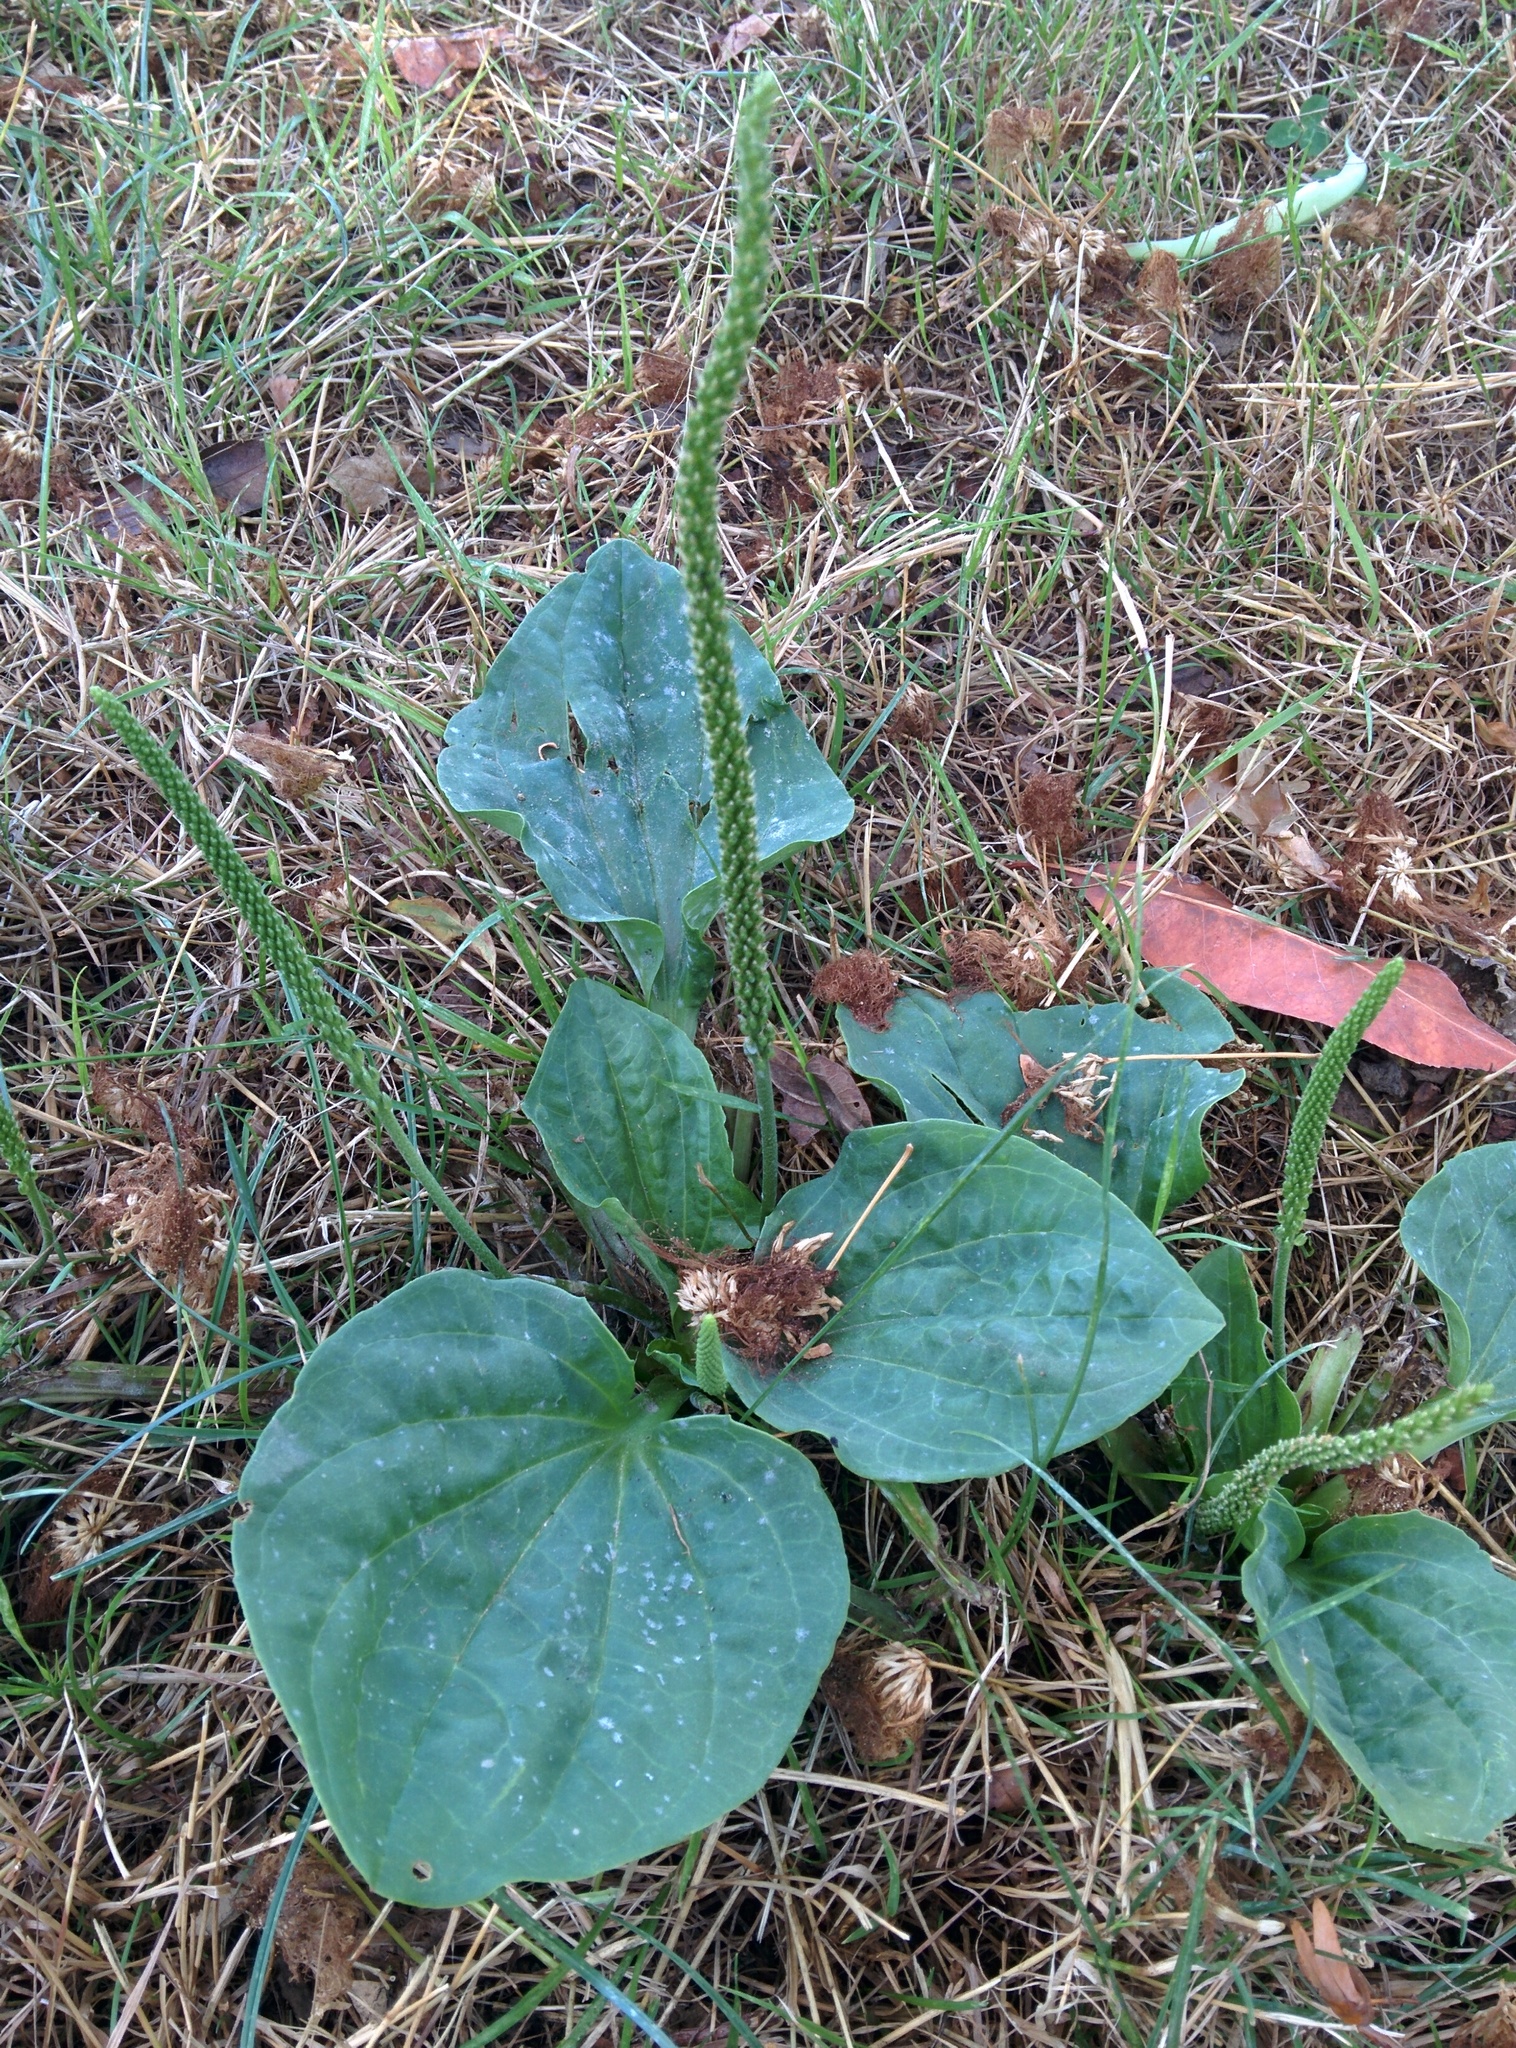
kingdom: Plantae
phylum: Tracheophyta
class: Magnoliopsida
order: Lamiales
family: Plantaginaceae
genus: Plantago
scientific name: Plantago major
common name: Common plantain
